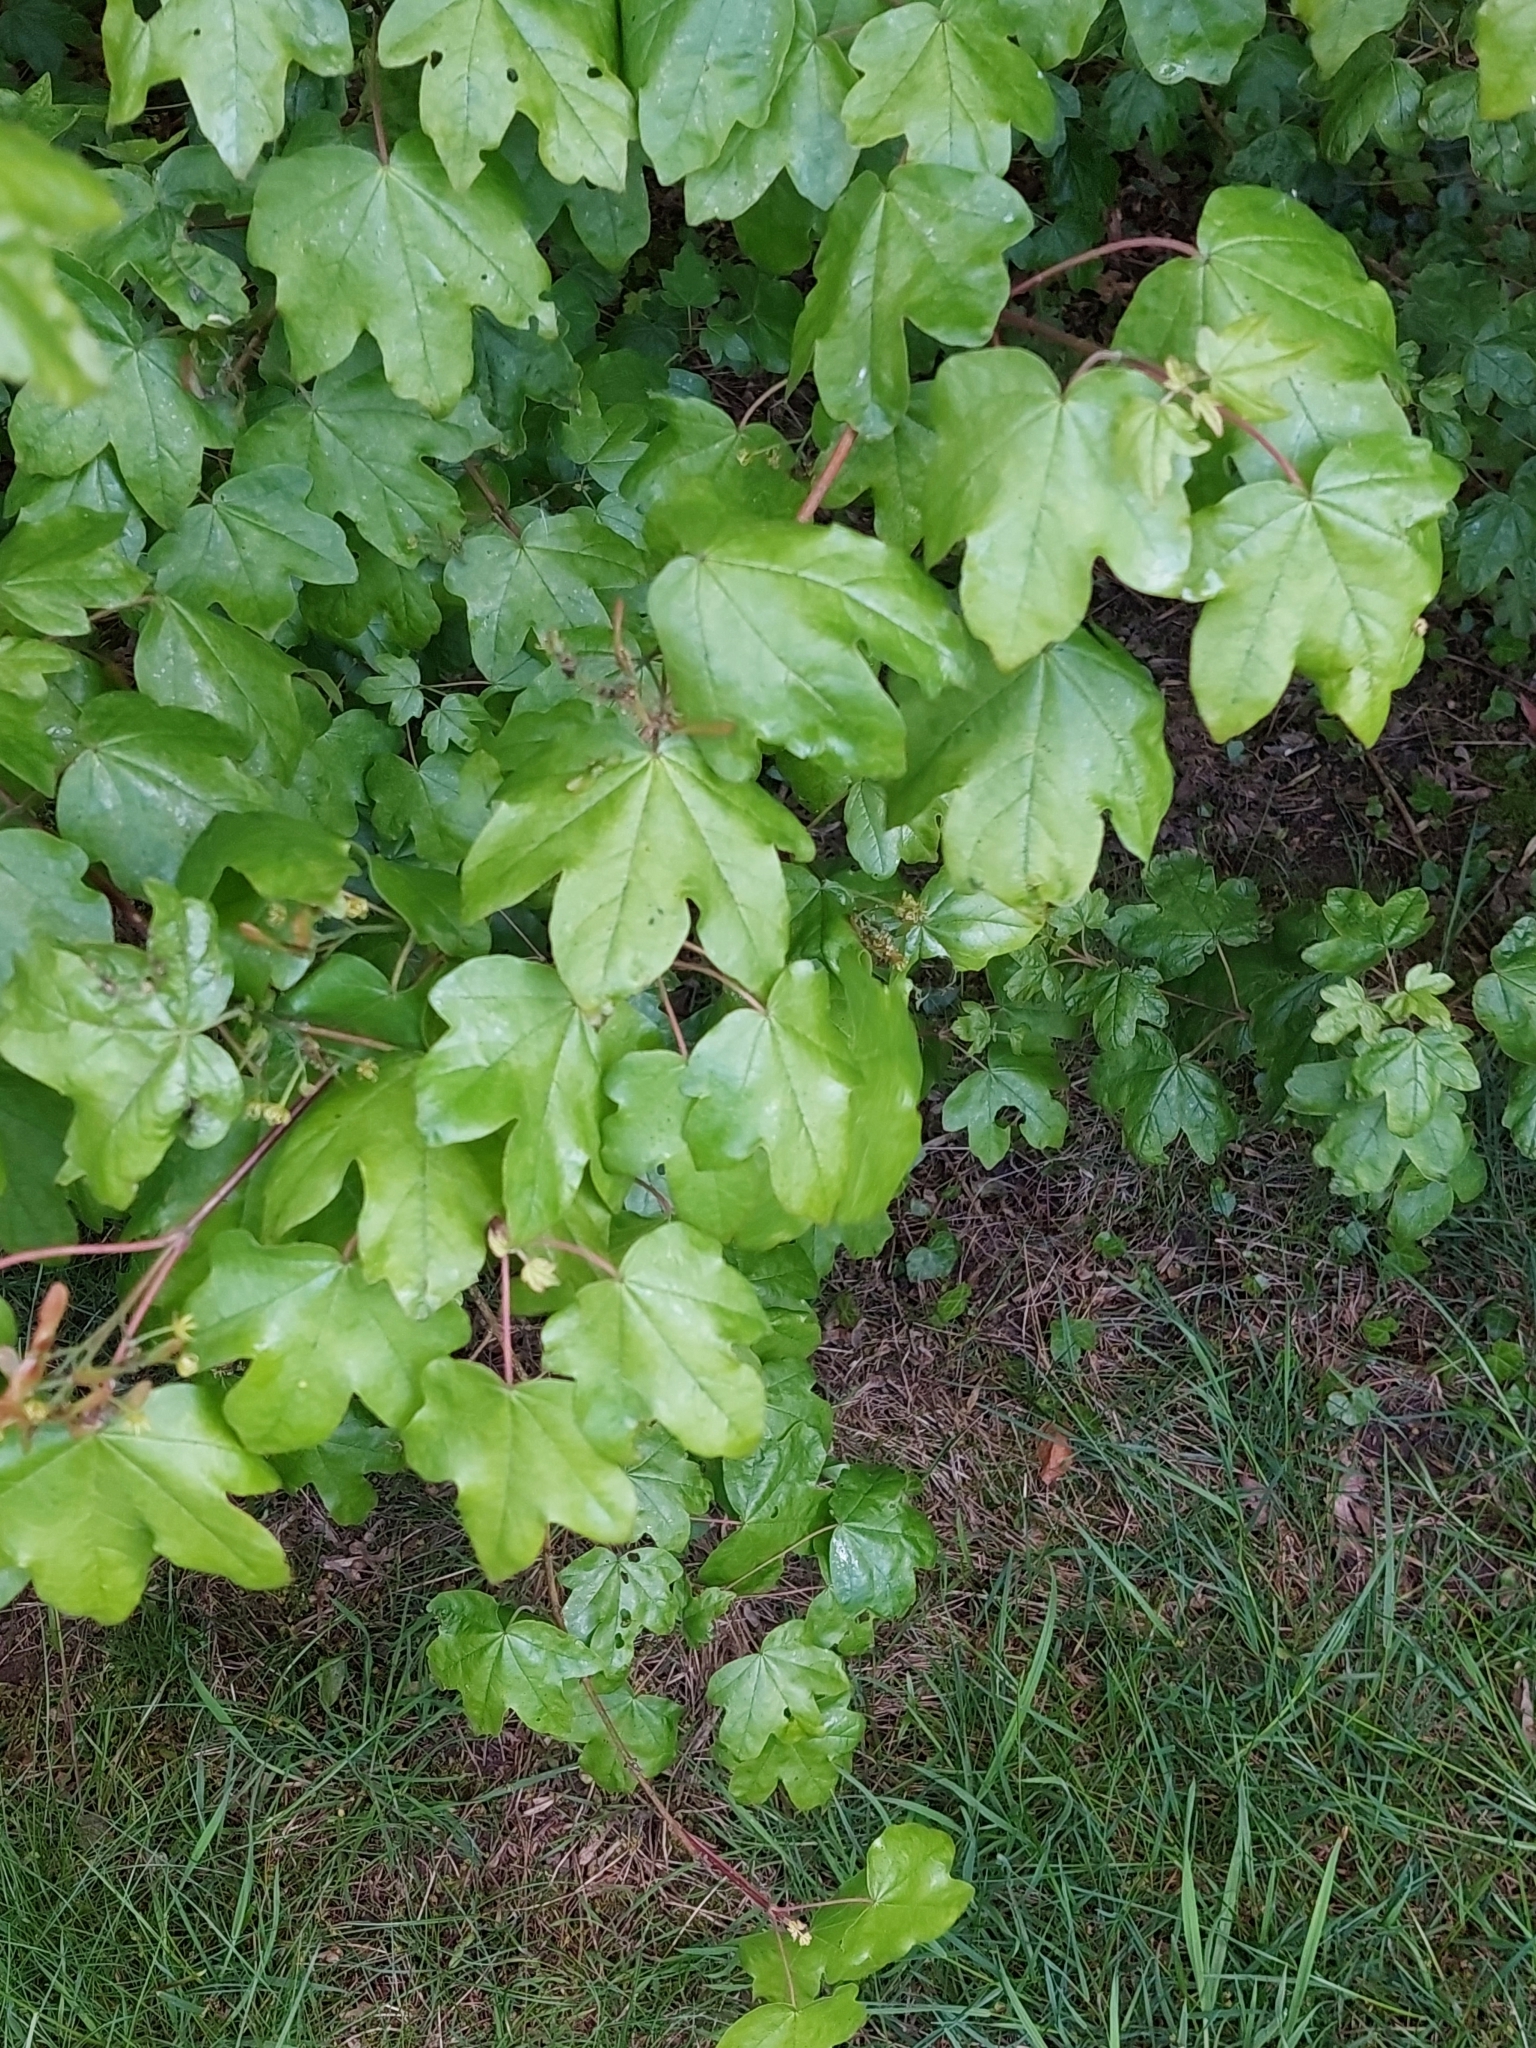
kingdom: Plantae
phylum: Tracheophyta
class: Magnoliopsida
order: Sapindales
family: Sapindaceae
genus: Acer
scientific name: Acer campestre
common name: Field maple
